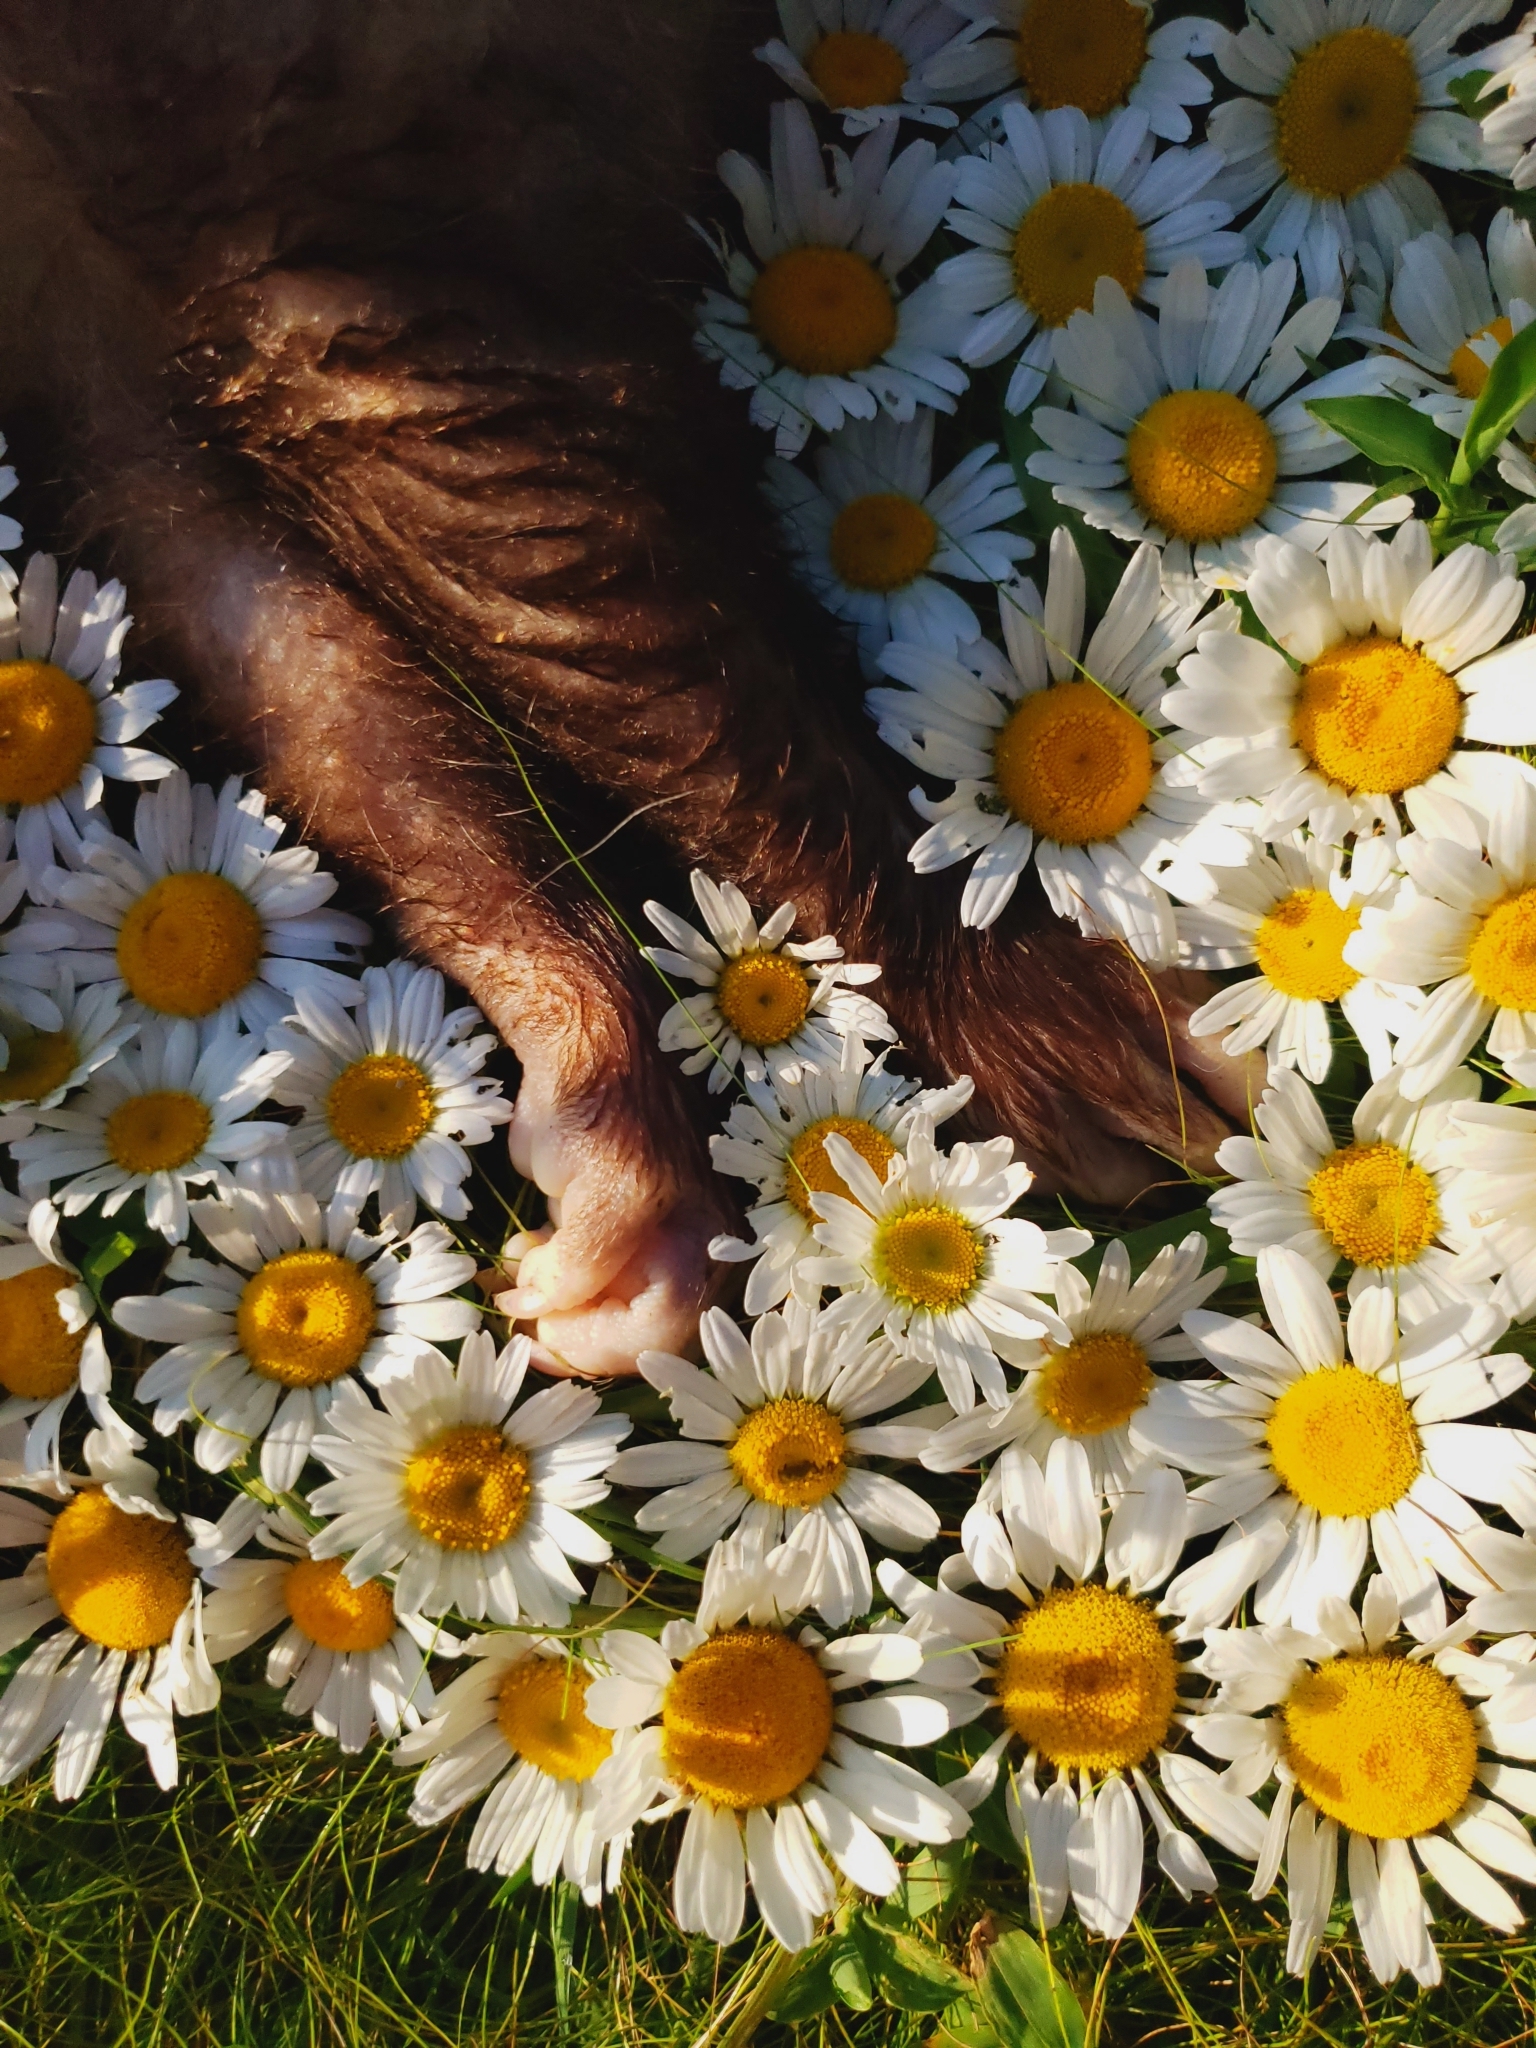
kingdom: Animalia
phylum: Chordata
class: Mammalia
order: Didelphimorphia
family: Didelphidae
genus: Didelphis
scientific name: Didelphis virginiana
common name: Virginia opossum
